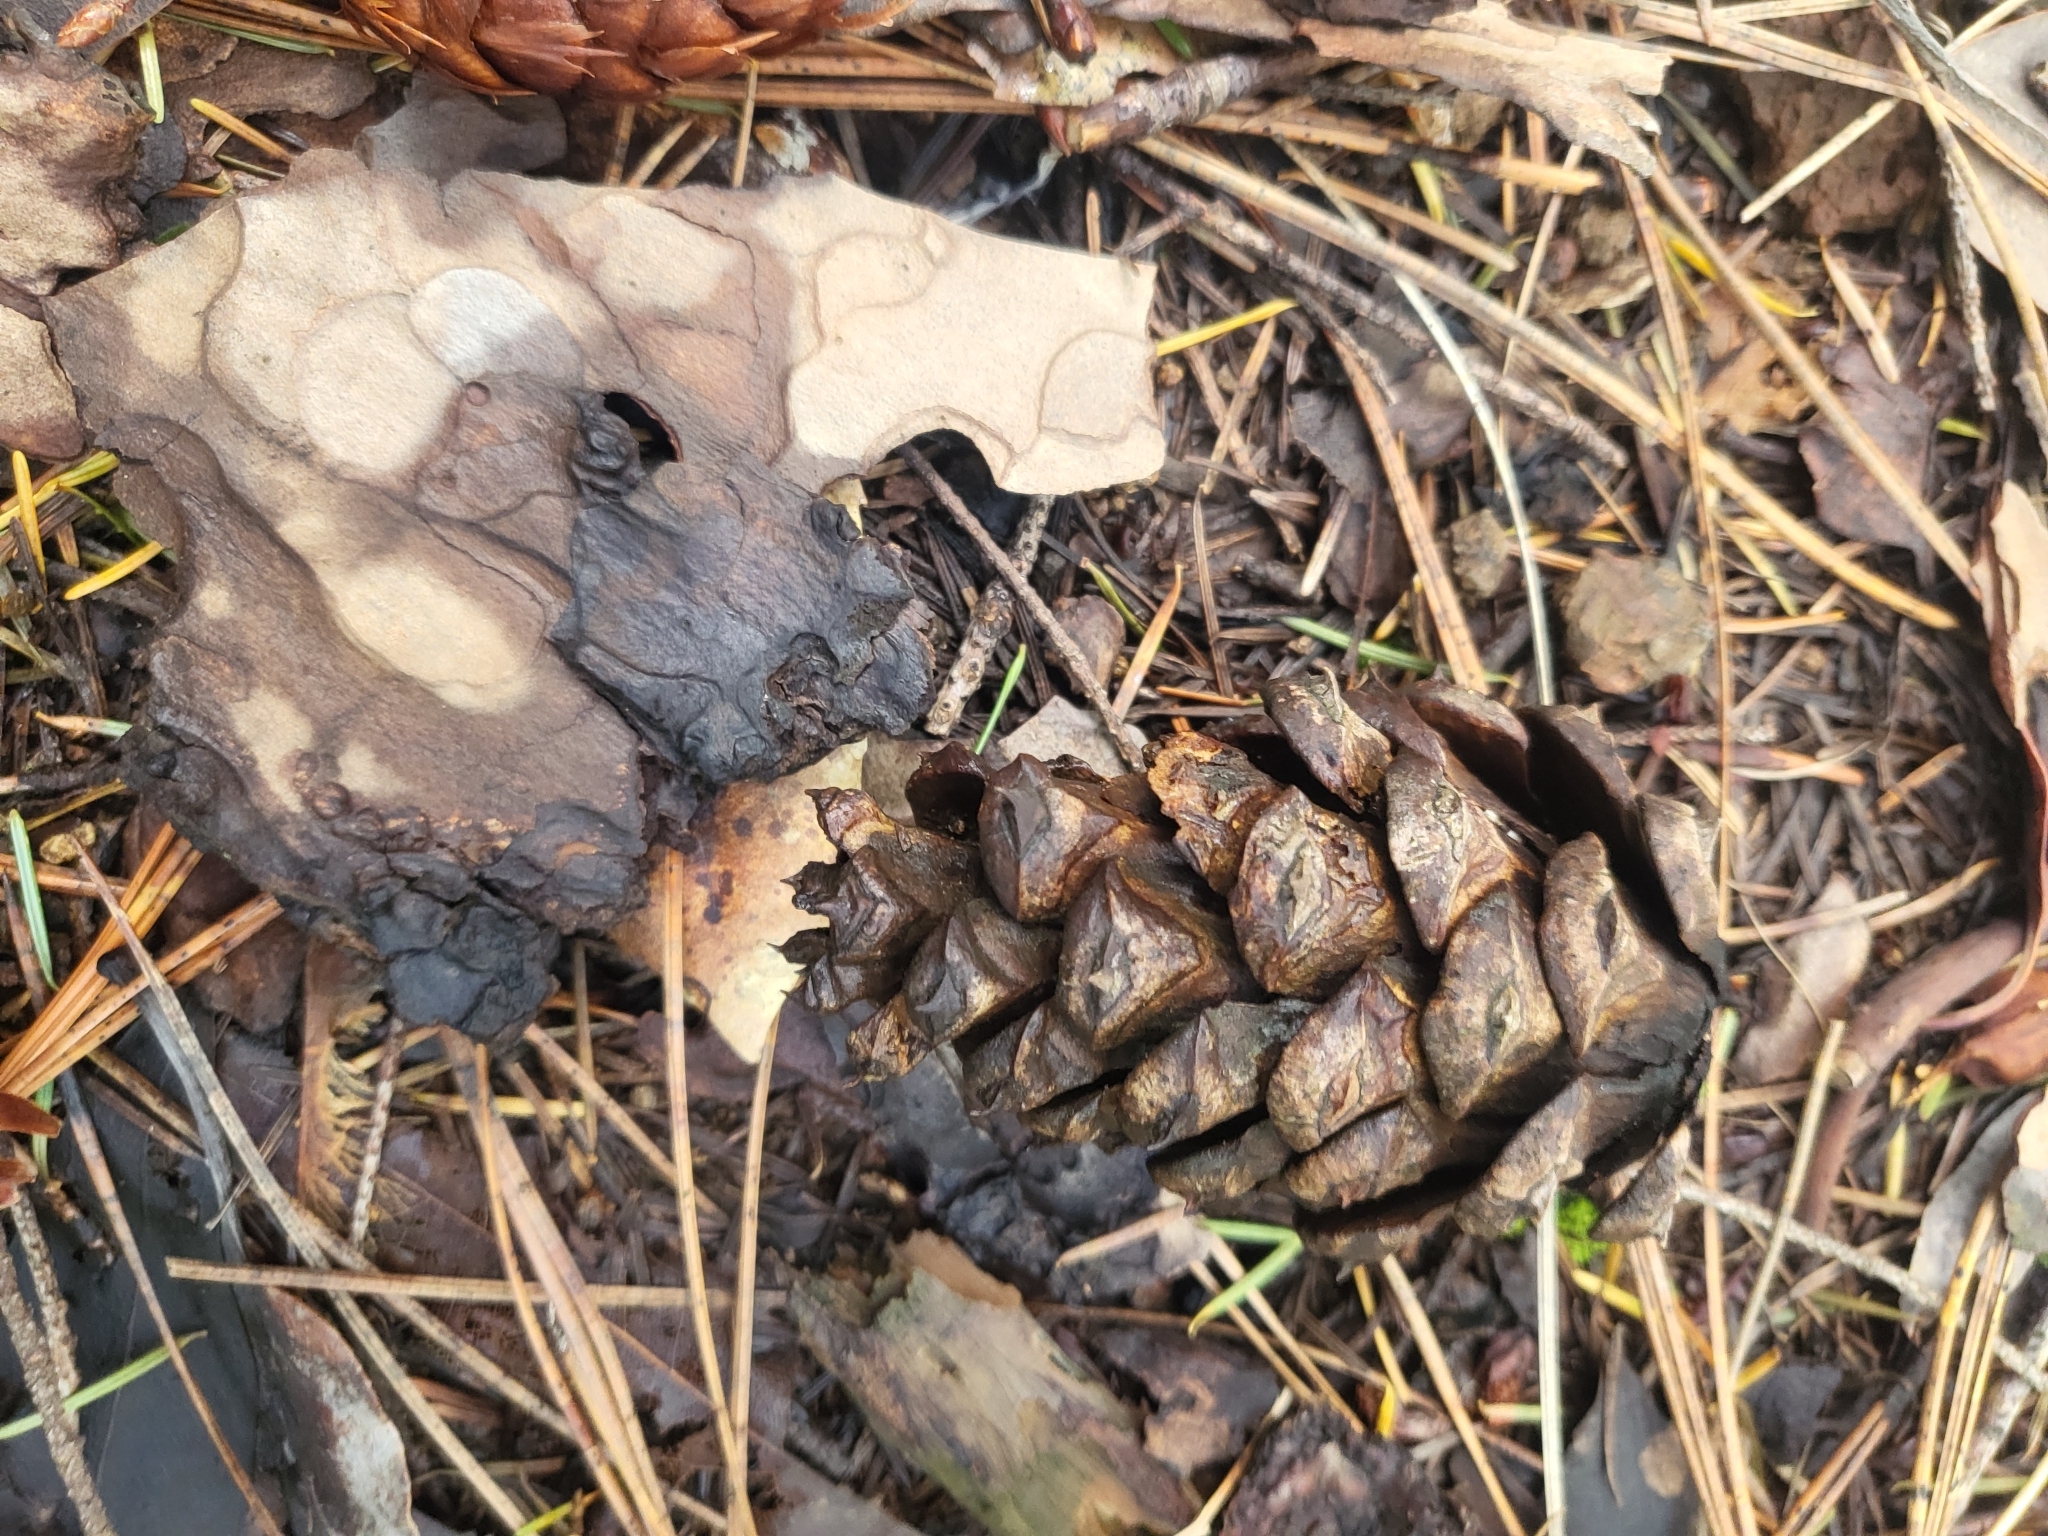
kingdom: Plantae
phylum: Tracheophyta
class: Pinopsida
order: Pinales
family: Pinaceae
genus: Pinus
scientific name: Pinus ponderosa
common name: Western yellow-pine
